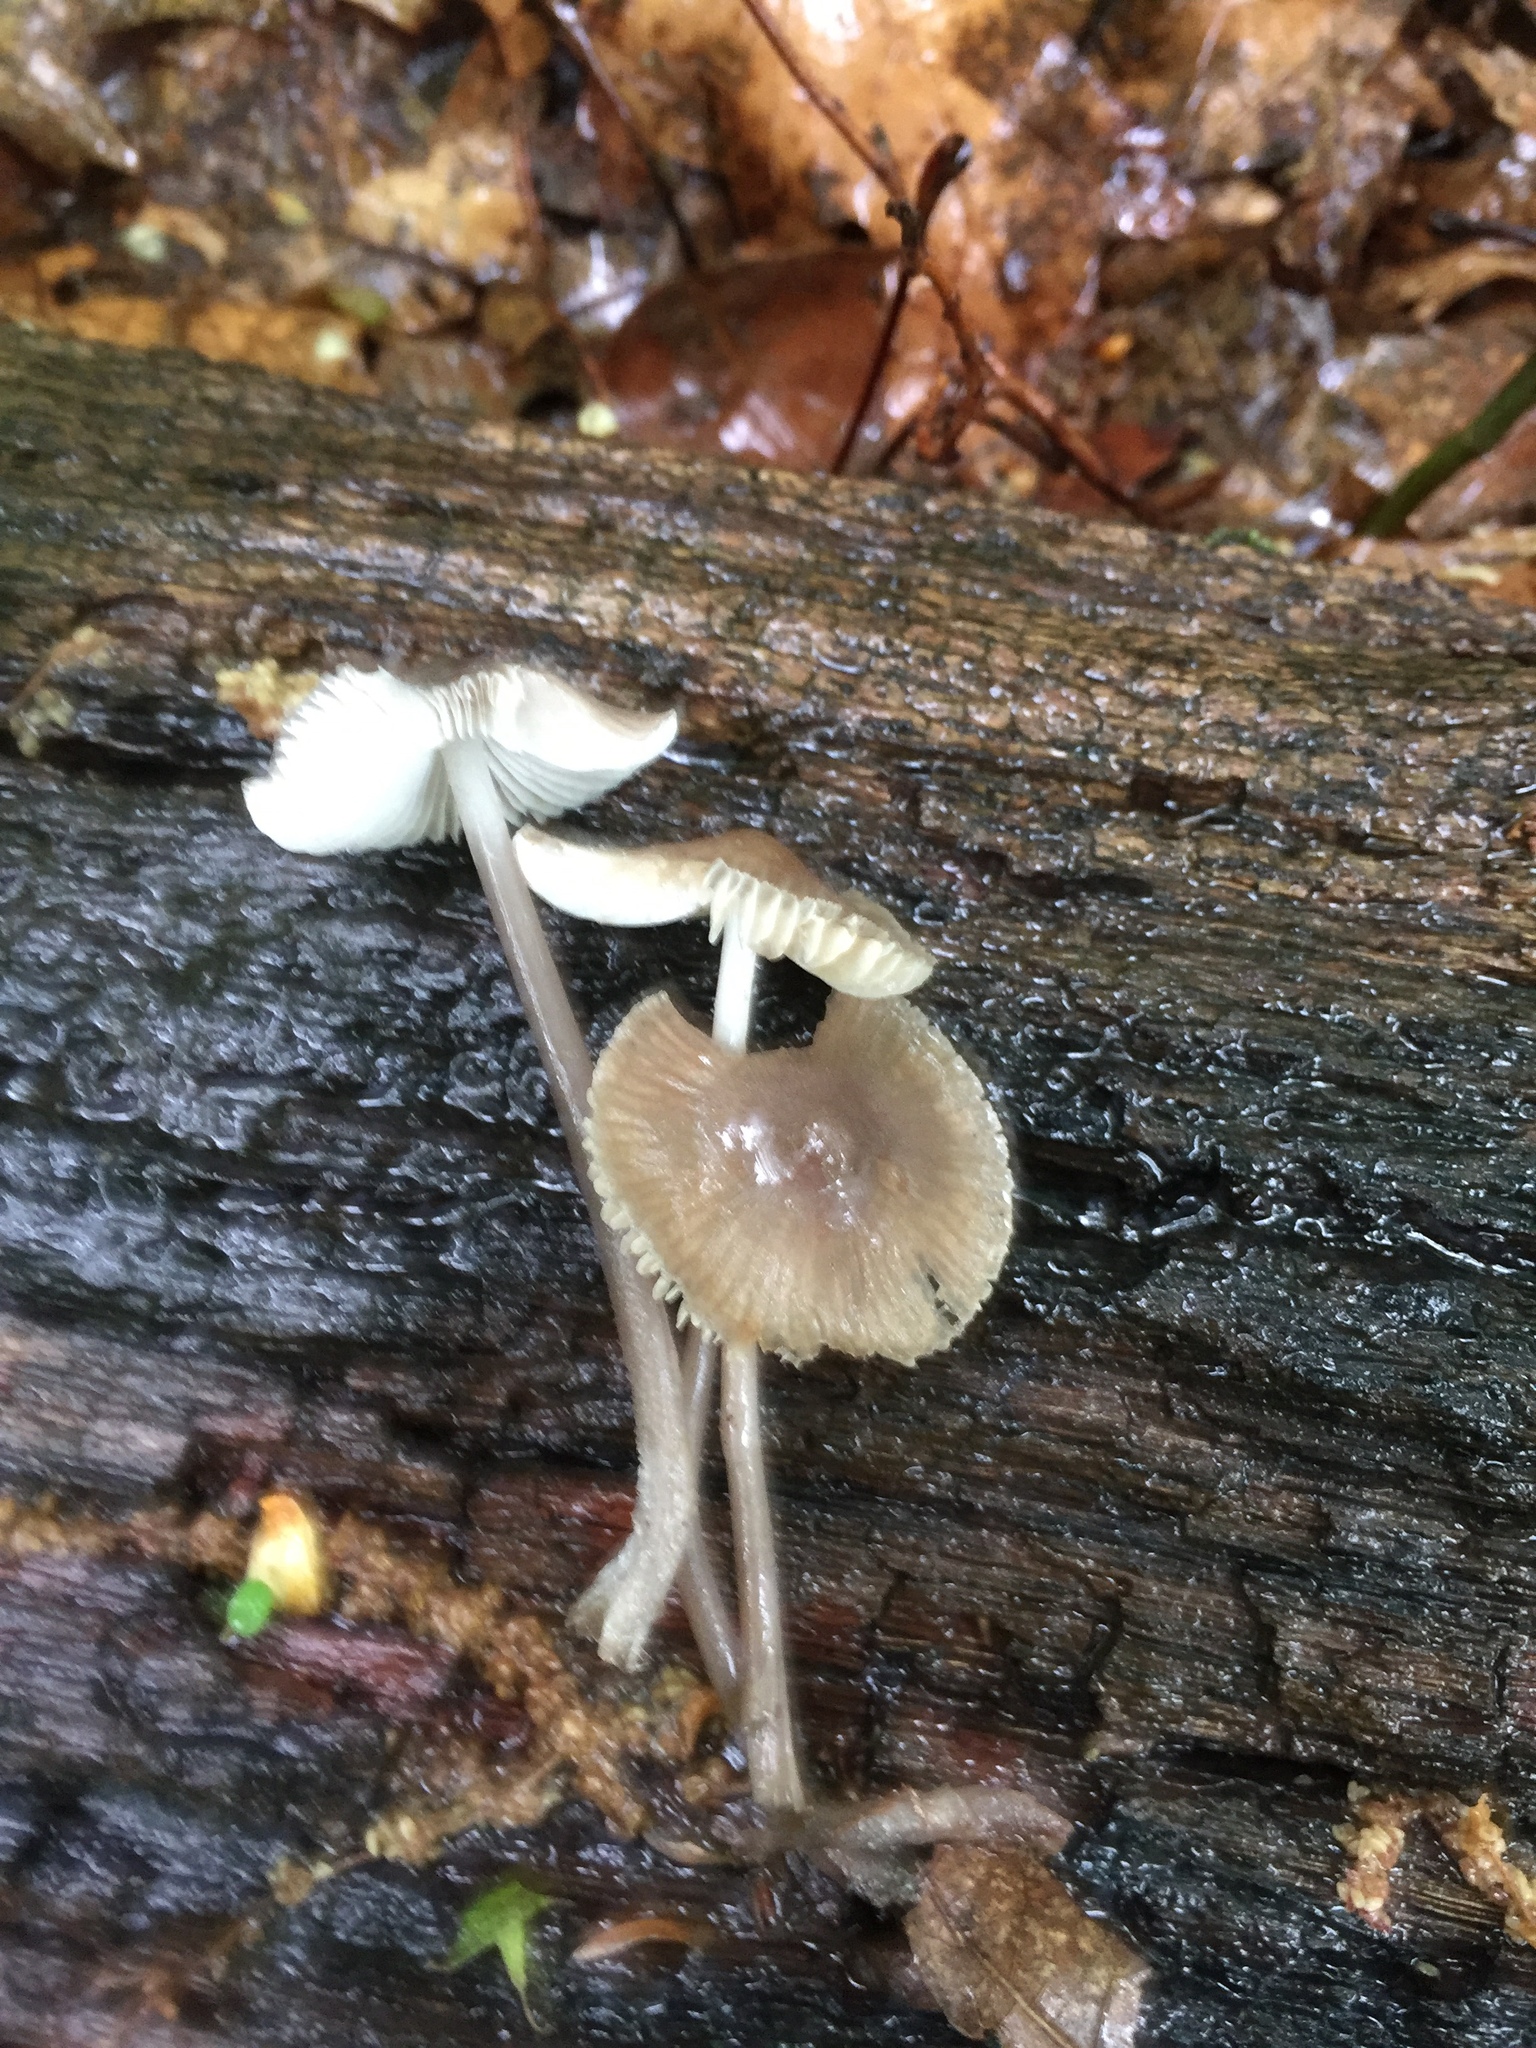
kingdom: Fungi
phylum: Basidiomycota
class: Agaricomycetes
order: Agaricales
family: Mycenaceae
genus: Mycena
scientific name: Mycena galericulata
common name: Bonnet mycena
